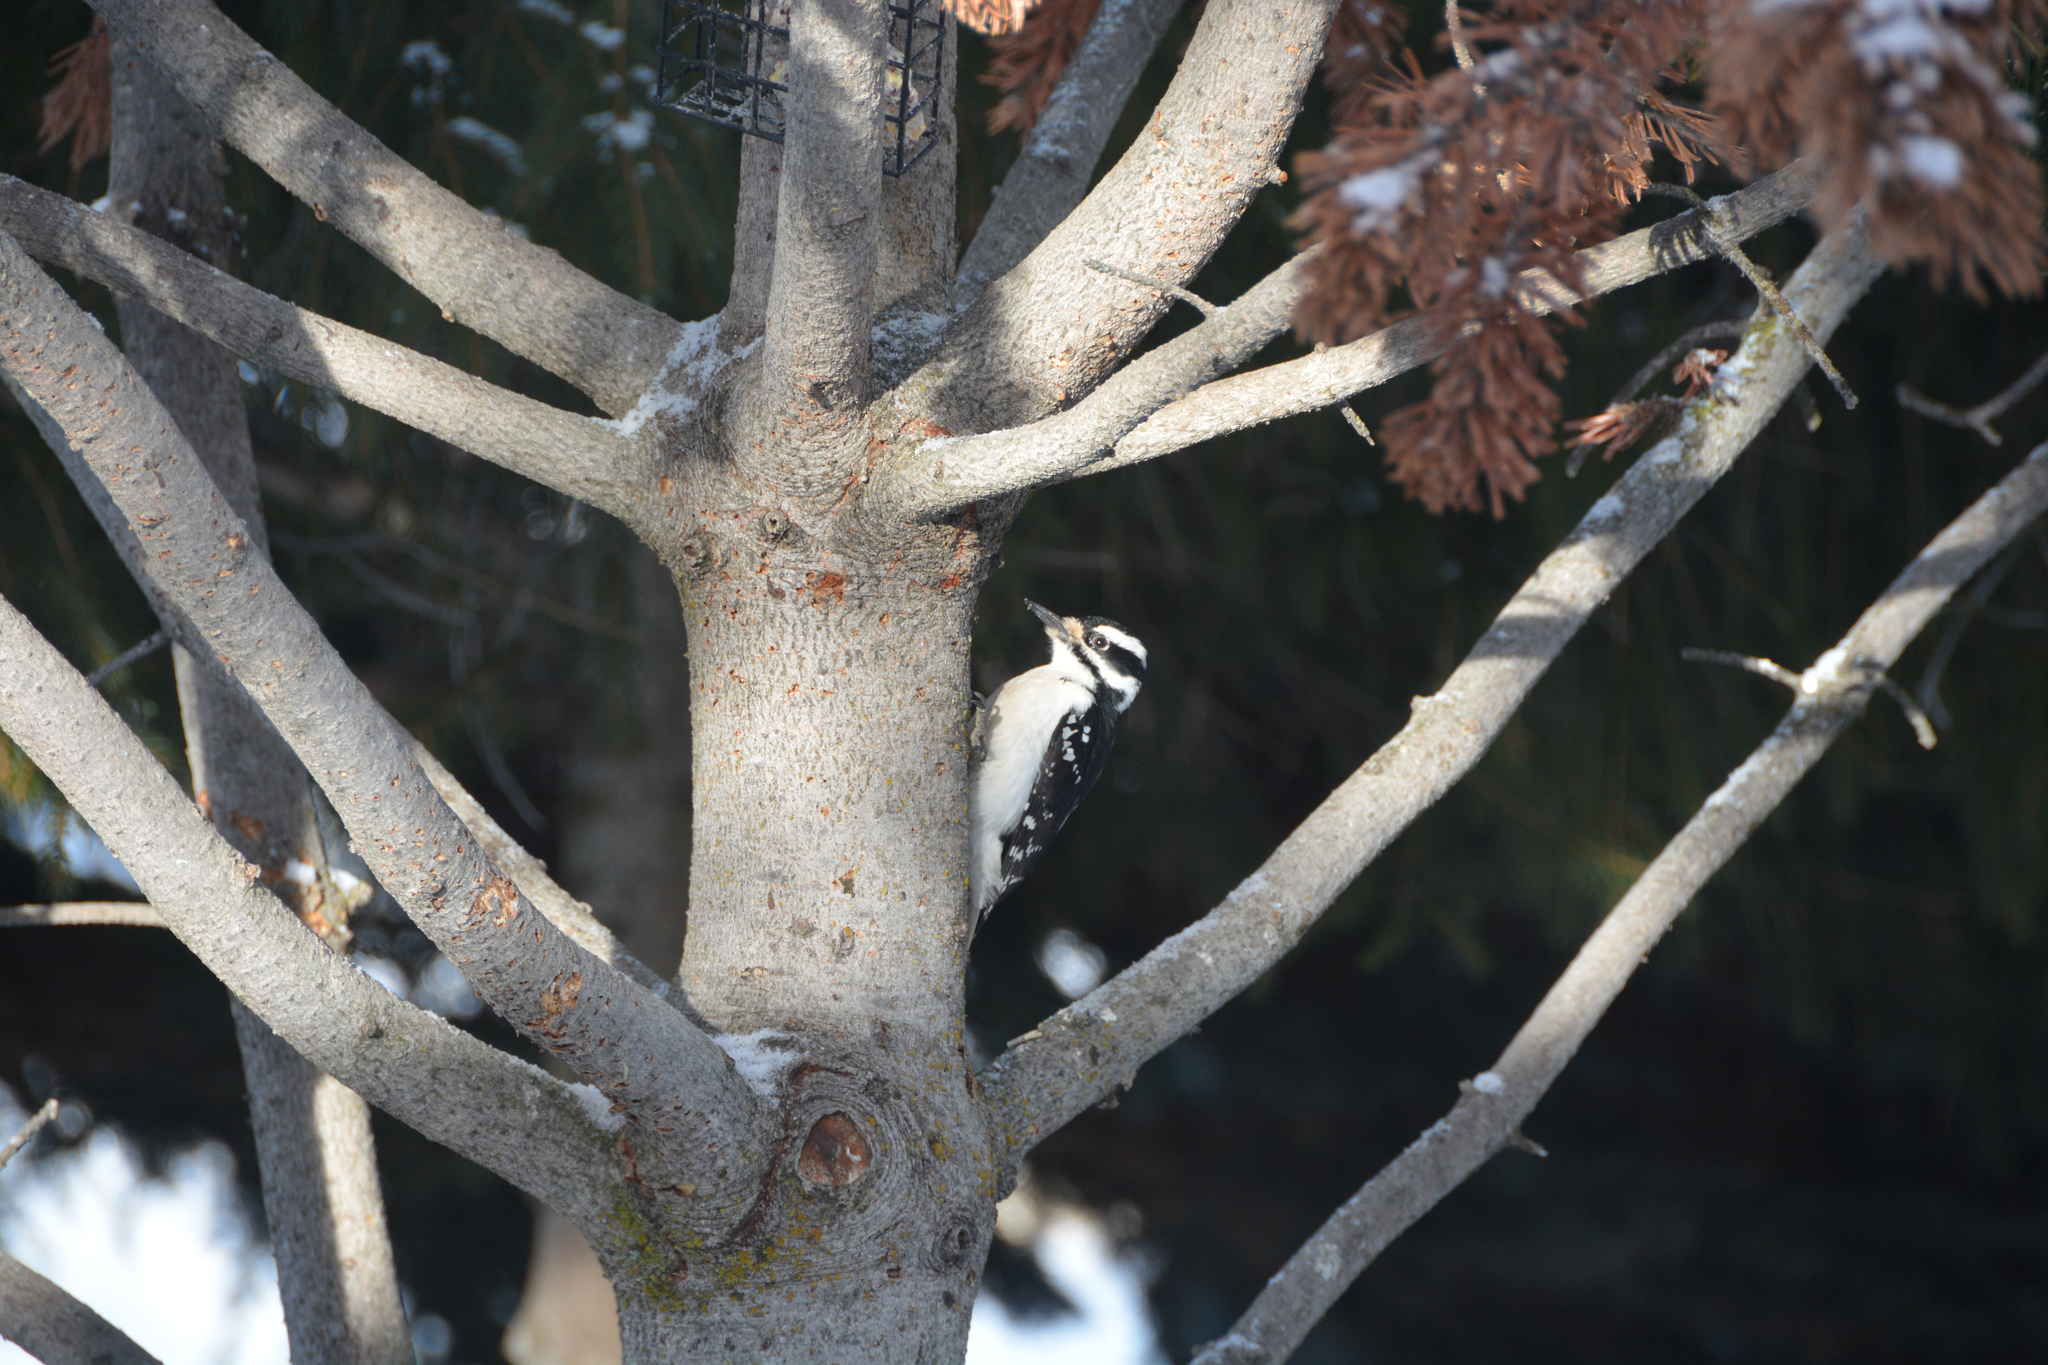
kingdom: Animalia
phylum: Chordata
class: Aves
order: Piciformes
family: Picidae
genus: Leuconotopicus
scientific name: Leuconotopicus villosus
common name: Hairy woodpecker
